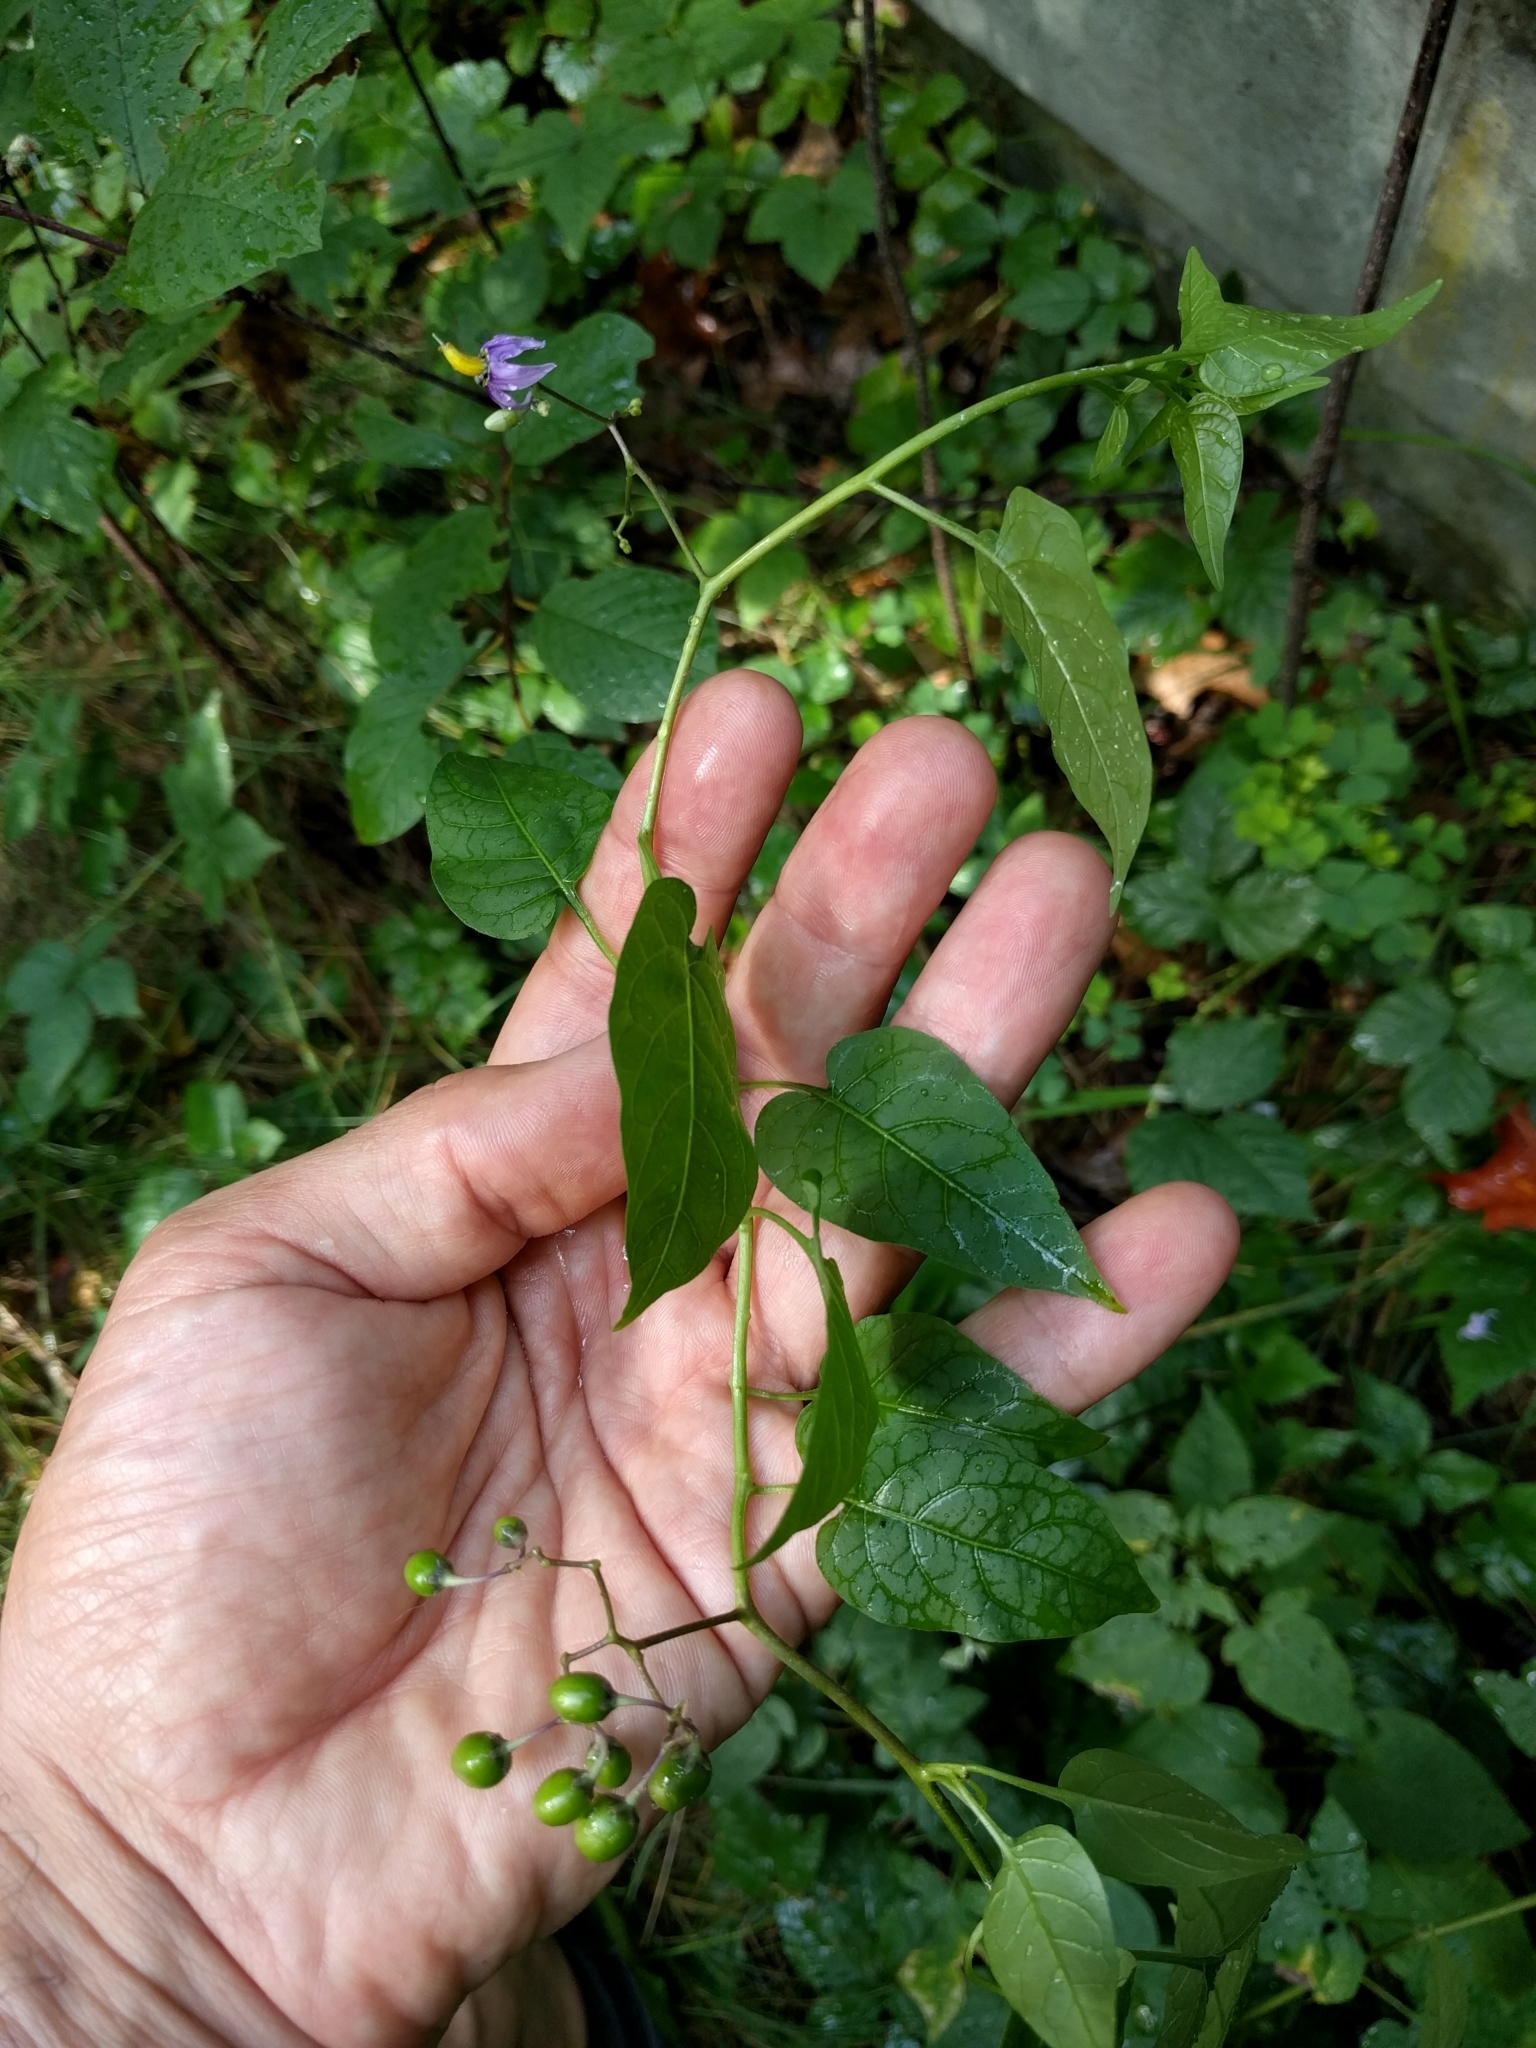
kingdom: Plantae
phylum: Tracheophyta
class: Magnoliopsida
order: Solanales
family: Solanaceae
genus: Solanum
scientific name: Solanum dulcamara
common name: Climbing nightshade
